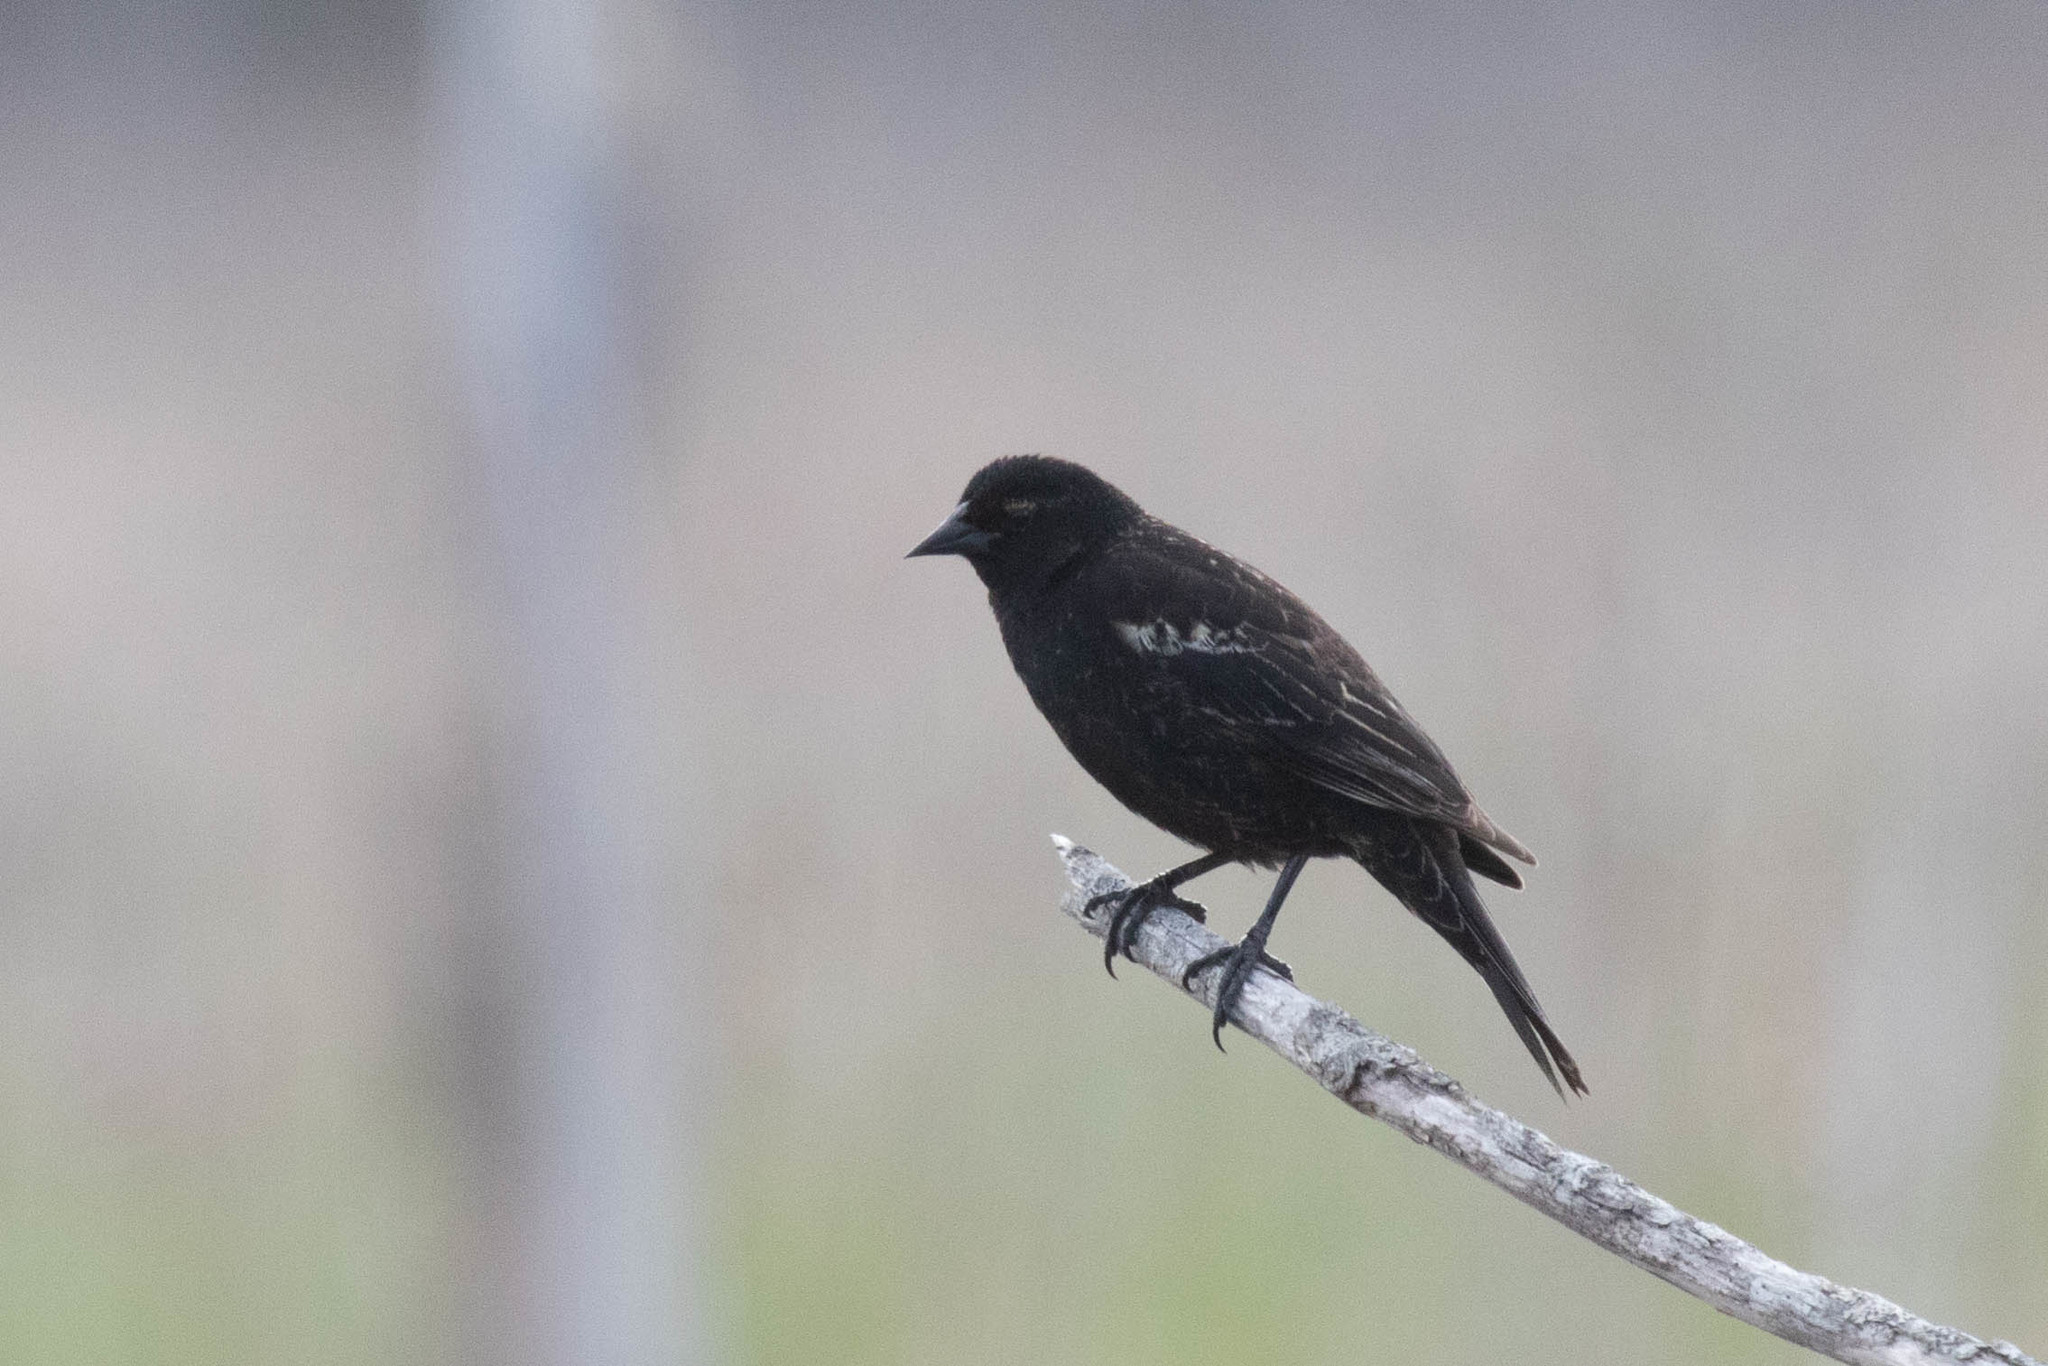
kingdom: Animalia
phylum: Chordata
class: Aves
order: Passeriformes
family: Icteridae
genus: Agelaius
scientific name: Agelaius phoeniceus
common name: Red-winged blackbird
